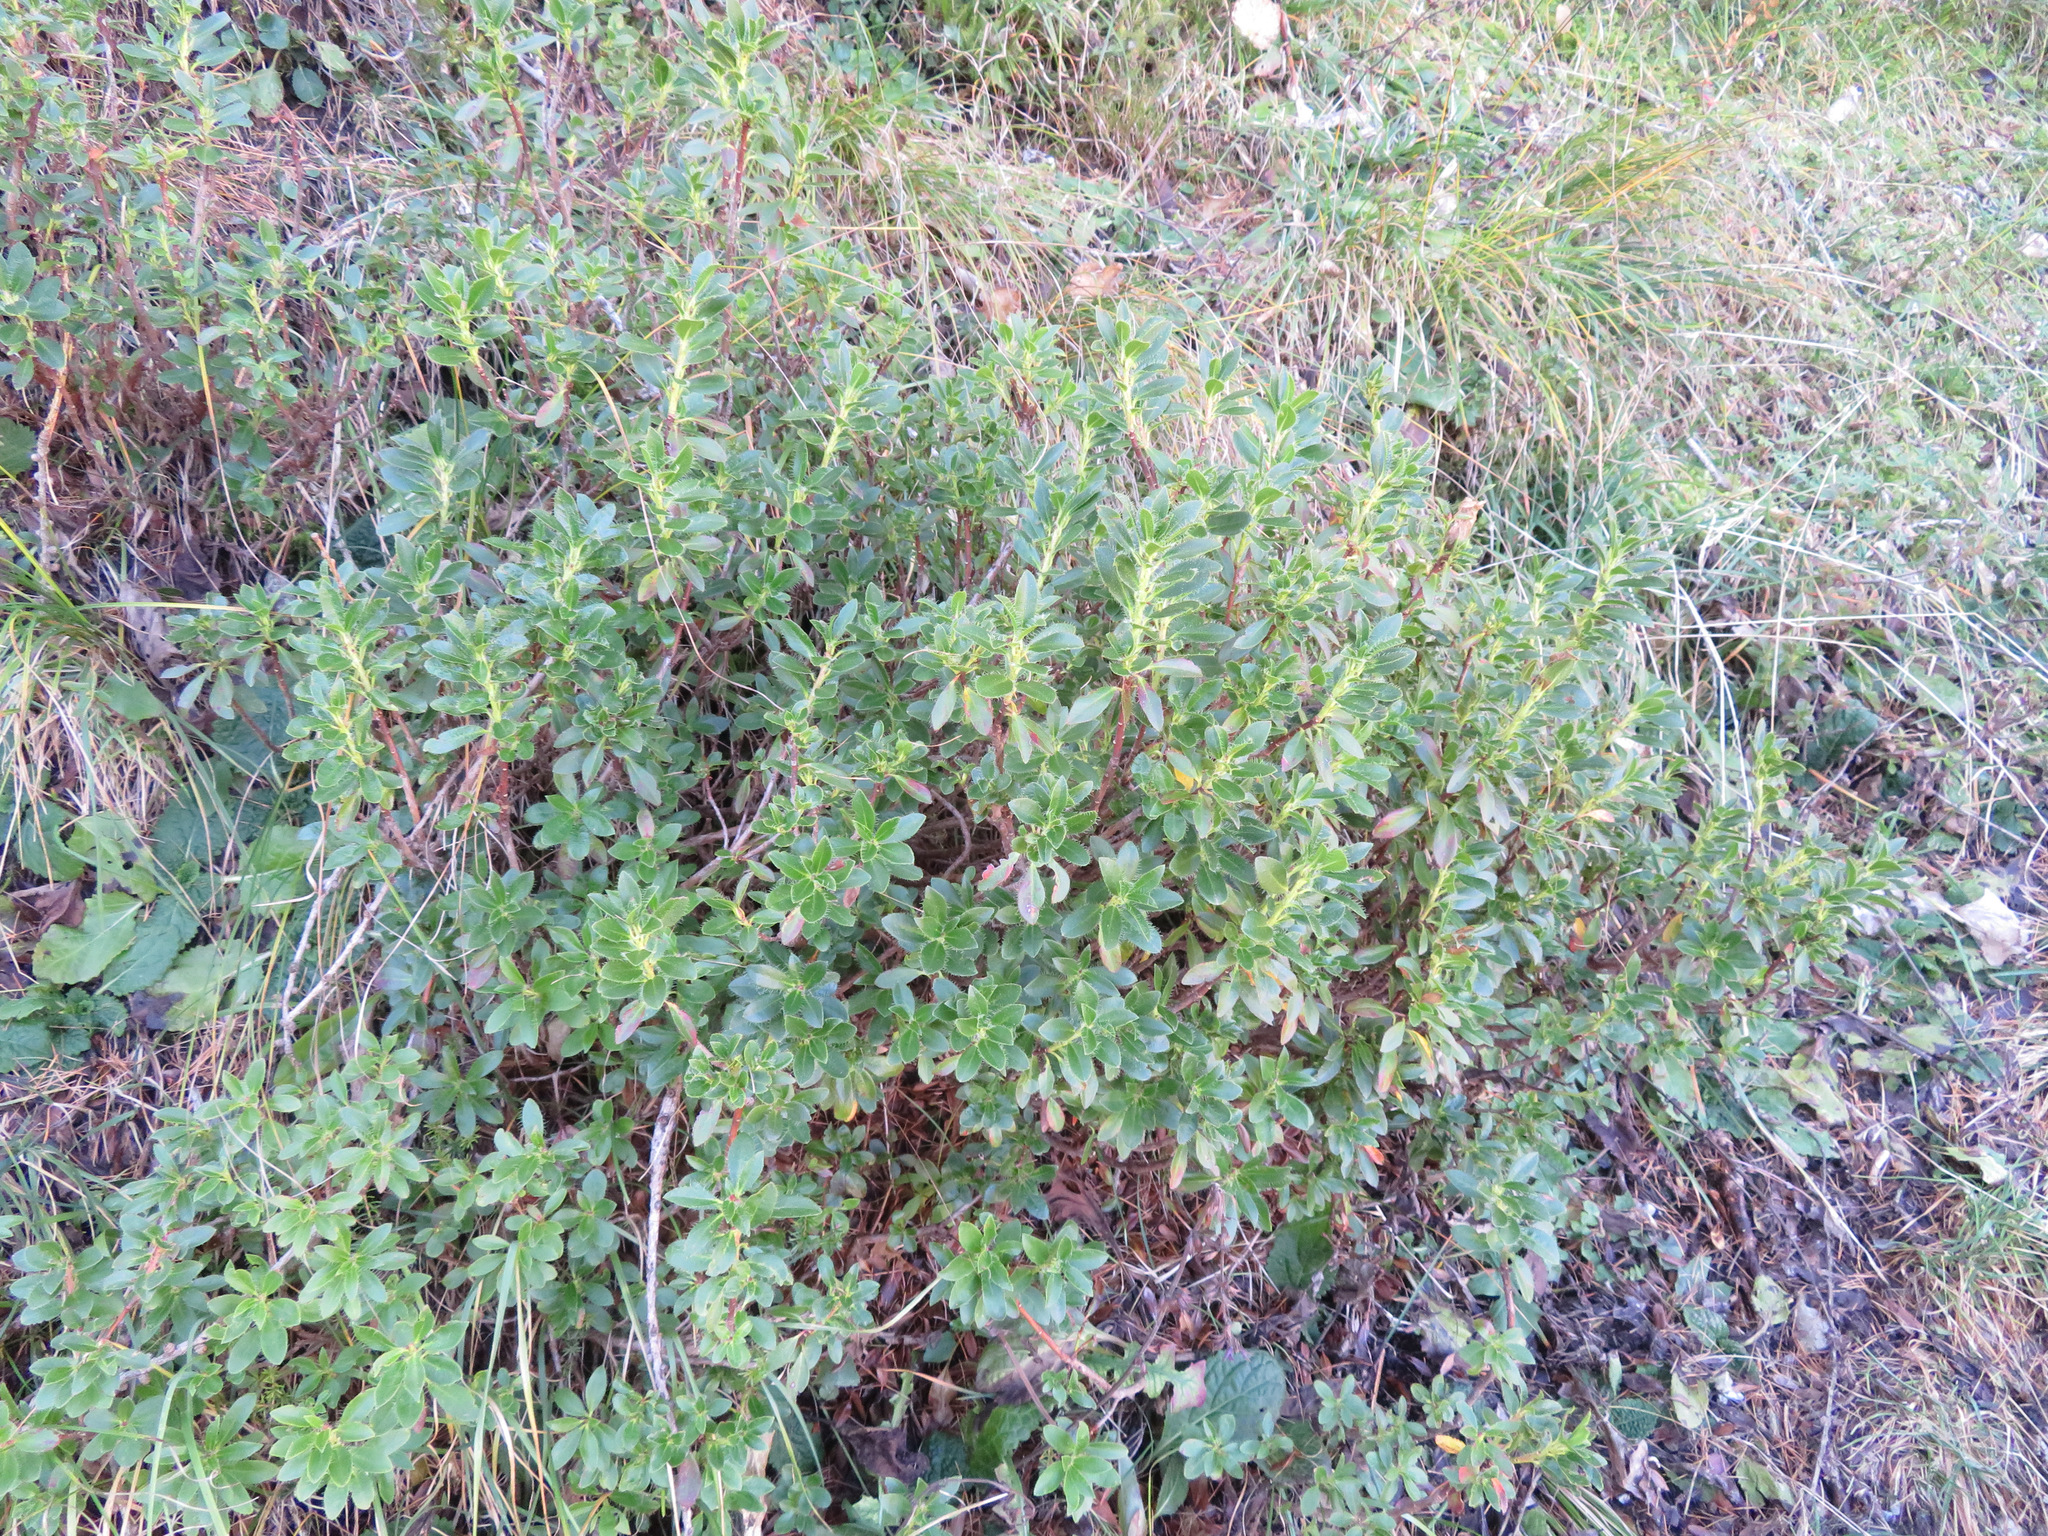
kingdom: Plantae
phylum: Tracheophyta
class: Magnoliopsida
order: Ericales
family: Ericaceae
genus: Rhododendron
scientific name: Rhododendron hirsutum
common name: Hairy alpenrose
